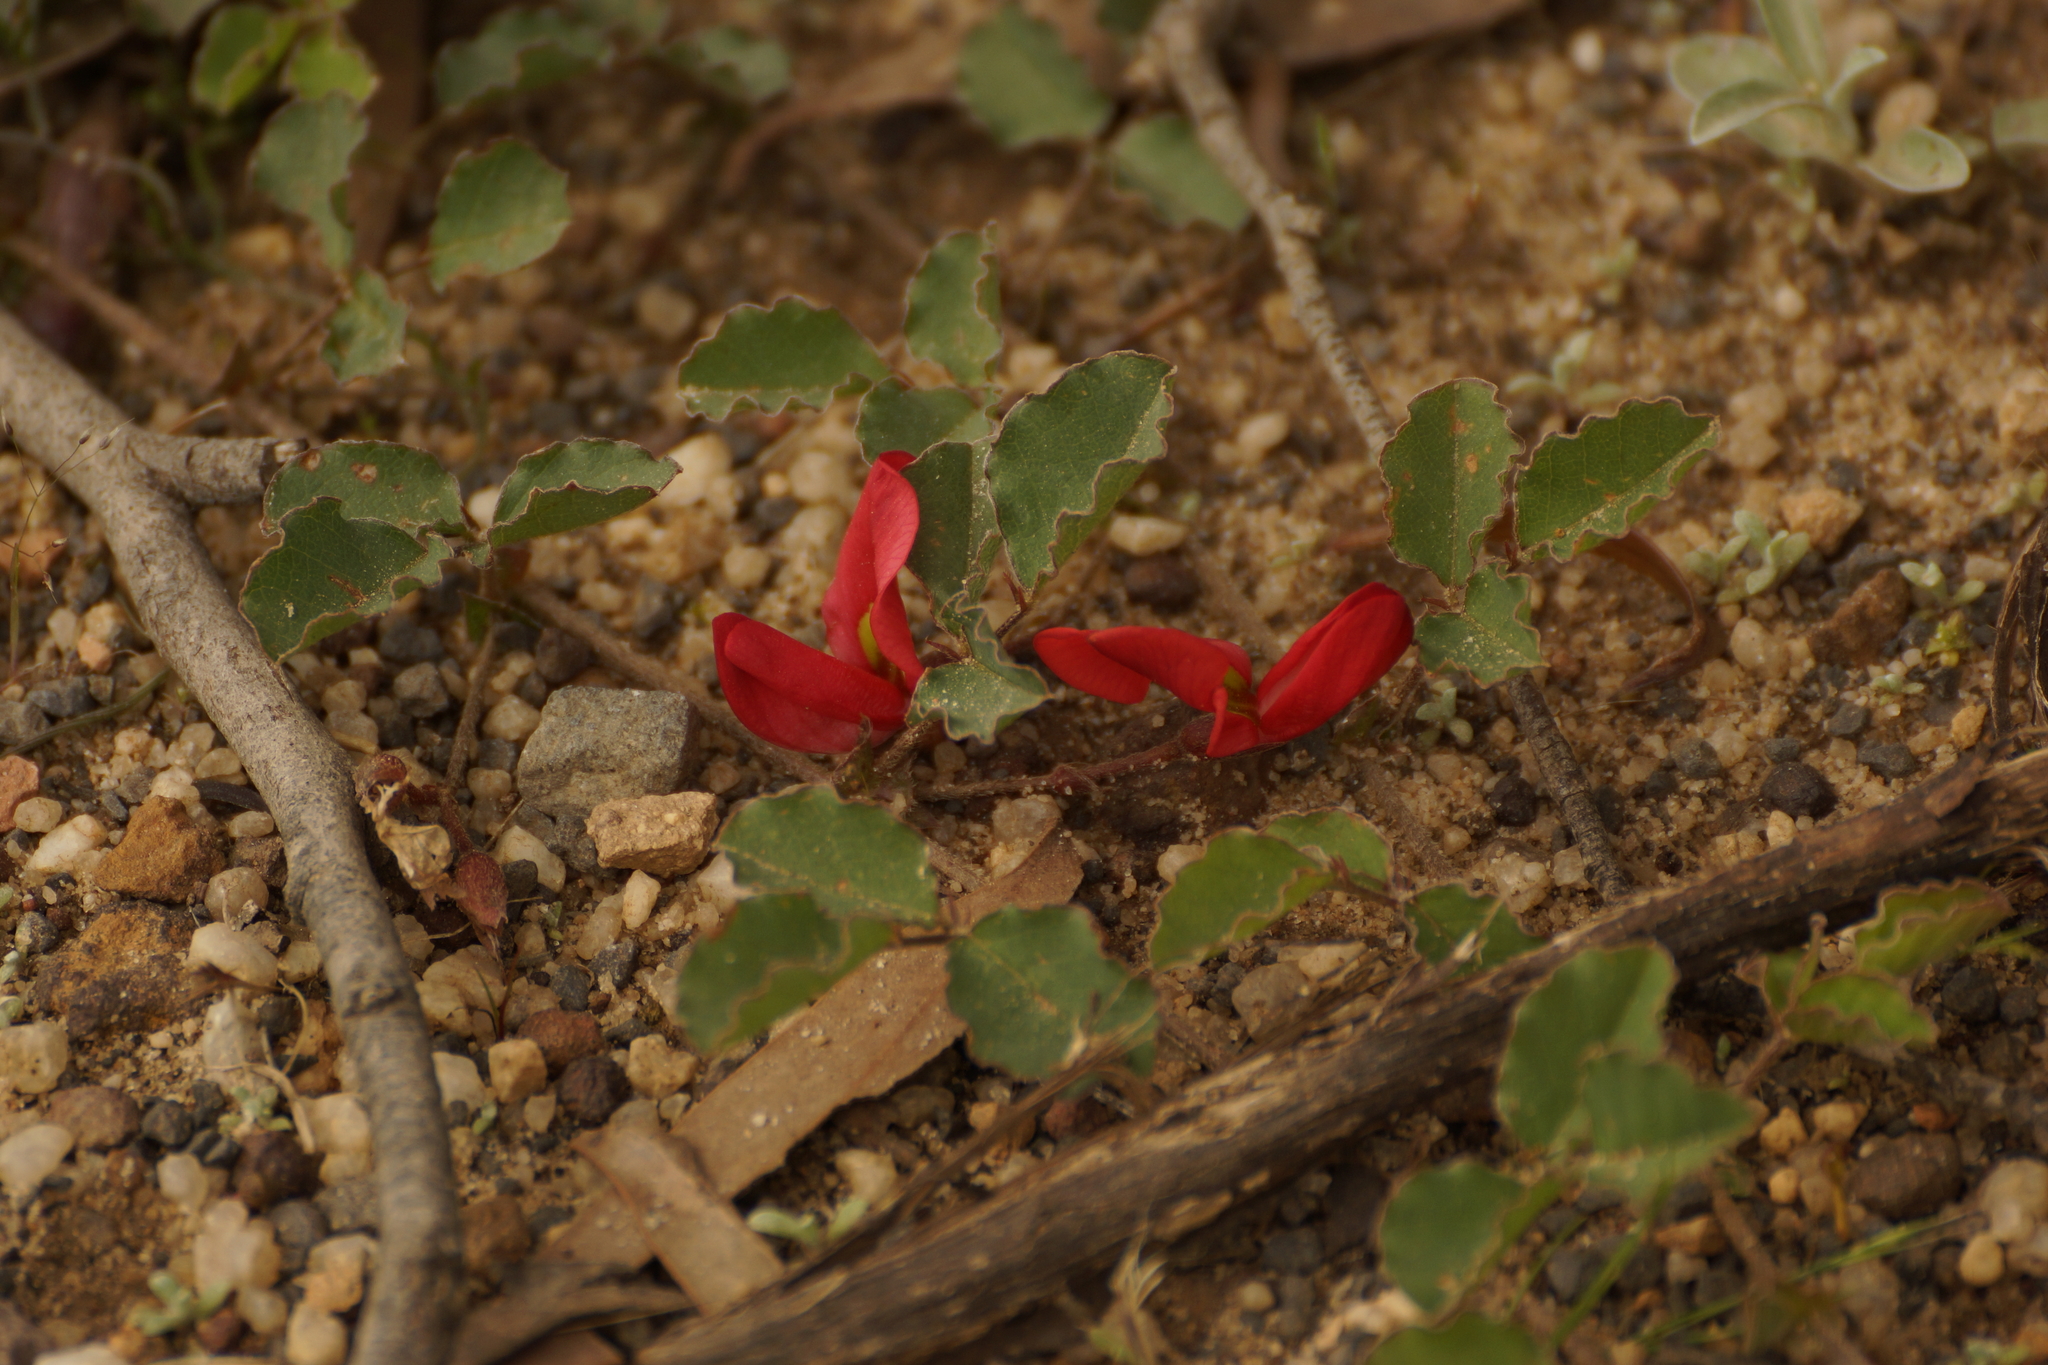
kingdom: Plantae
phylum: Tracheophyta
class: Magnoliopsida
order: Fabales
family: Fabaceae
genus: Kennedia
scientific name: Kennedia prostrata
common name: Running-postman
